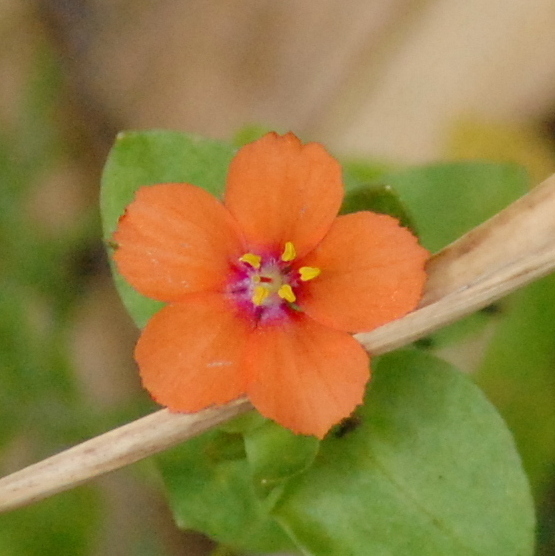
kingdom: Plantae
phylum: Tracheophyta
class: Magnoliopsida
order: Ericales
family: Primulaceae
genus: Lysimachia
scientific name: Lysimachia arvensis
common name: Scarlet pimpernel
